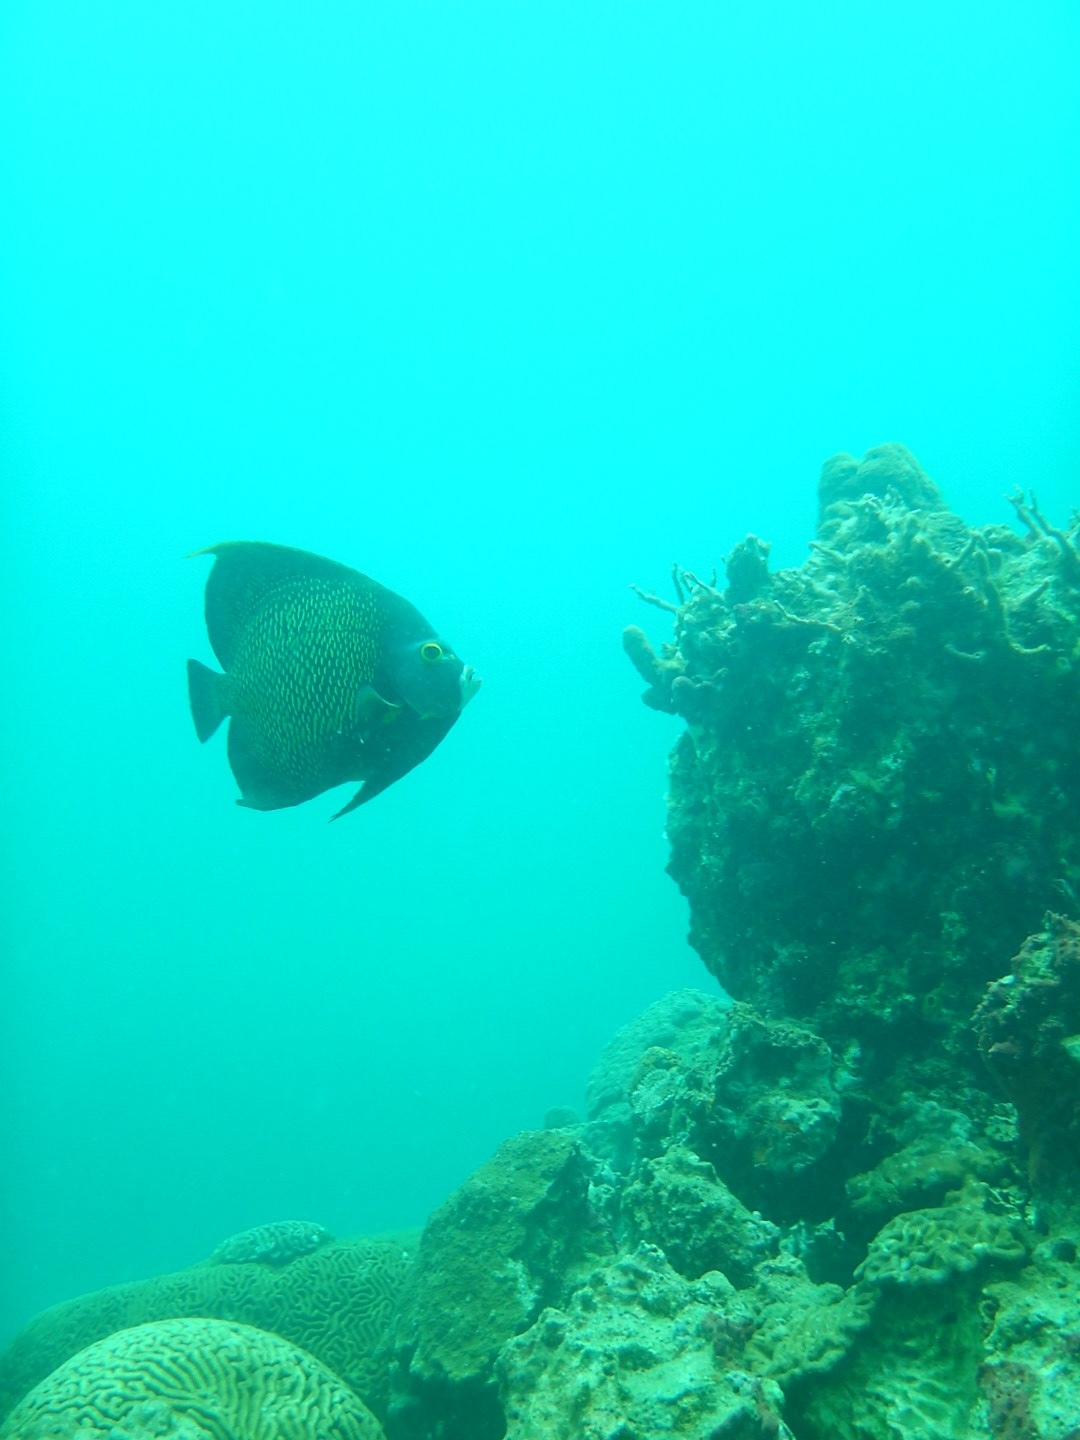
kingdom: Animalia
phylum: Chordata
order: Perciformes
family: Pomacanthidae
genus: Pomacanthus
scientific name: Pomacanthus paru
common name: French angelfish
